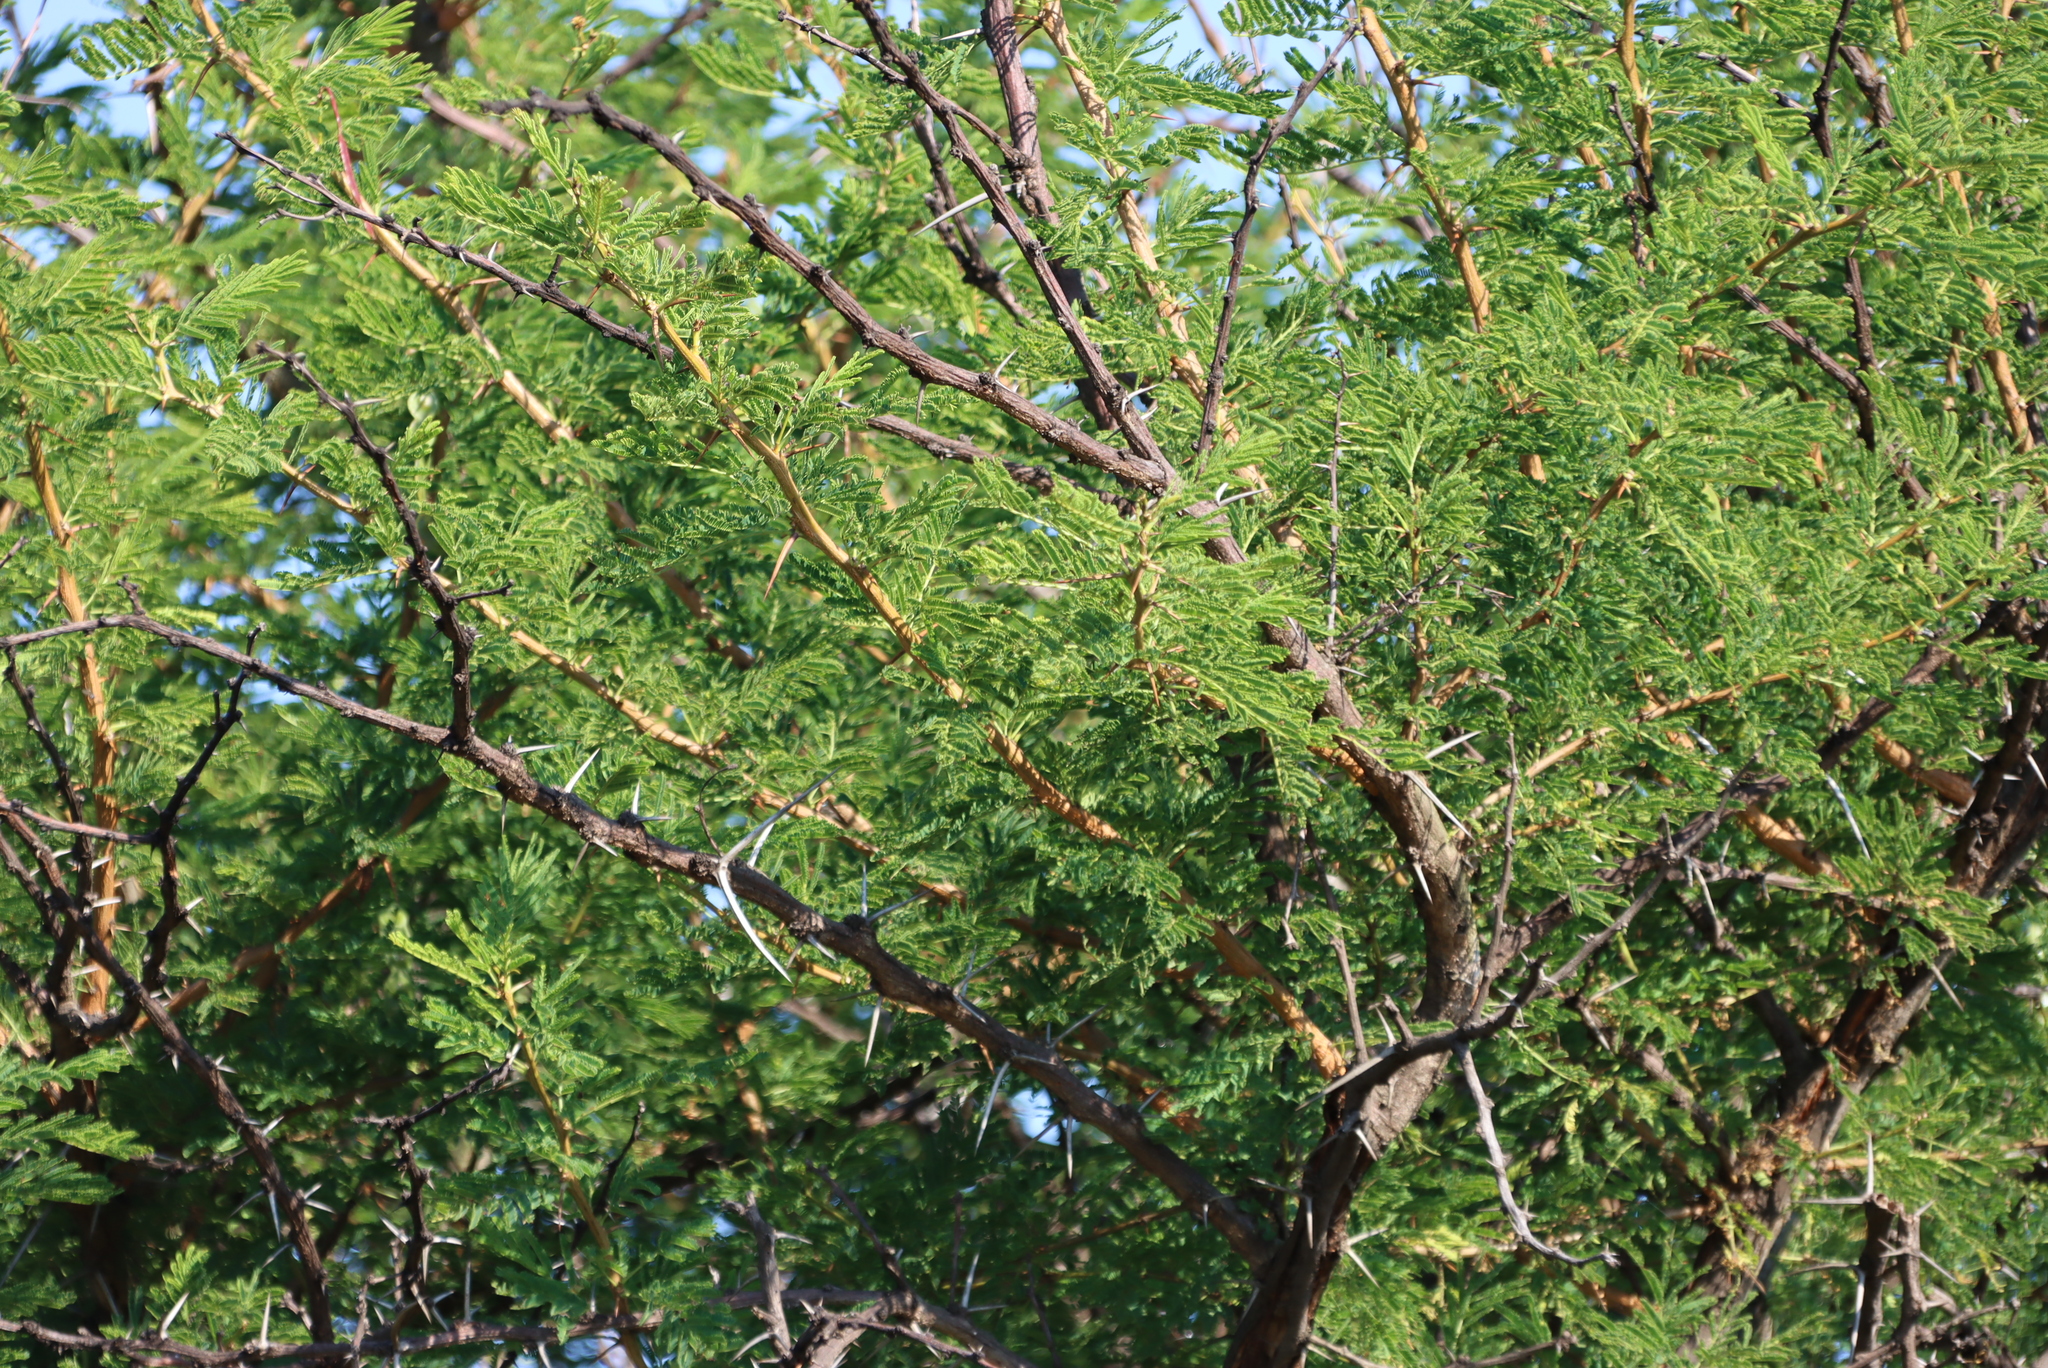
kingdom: Plantae
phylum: Tracheophyta
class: Magnoliopsida
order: Fabales
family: Fabaceae
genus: Vachellia
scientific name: Vachellia robusta
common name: Ankle thorn
